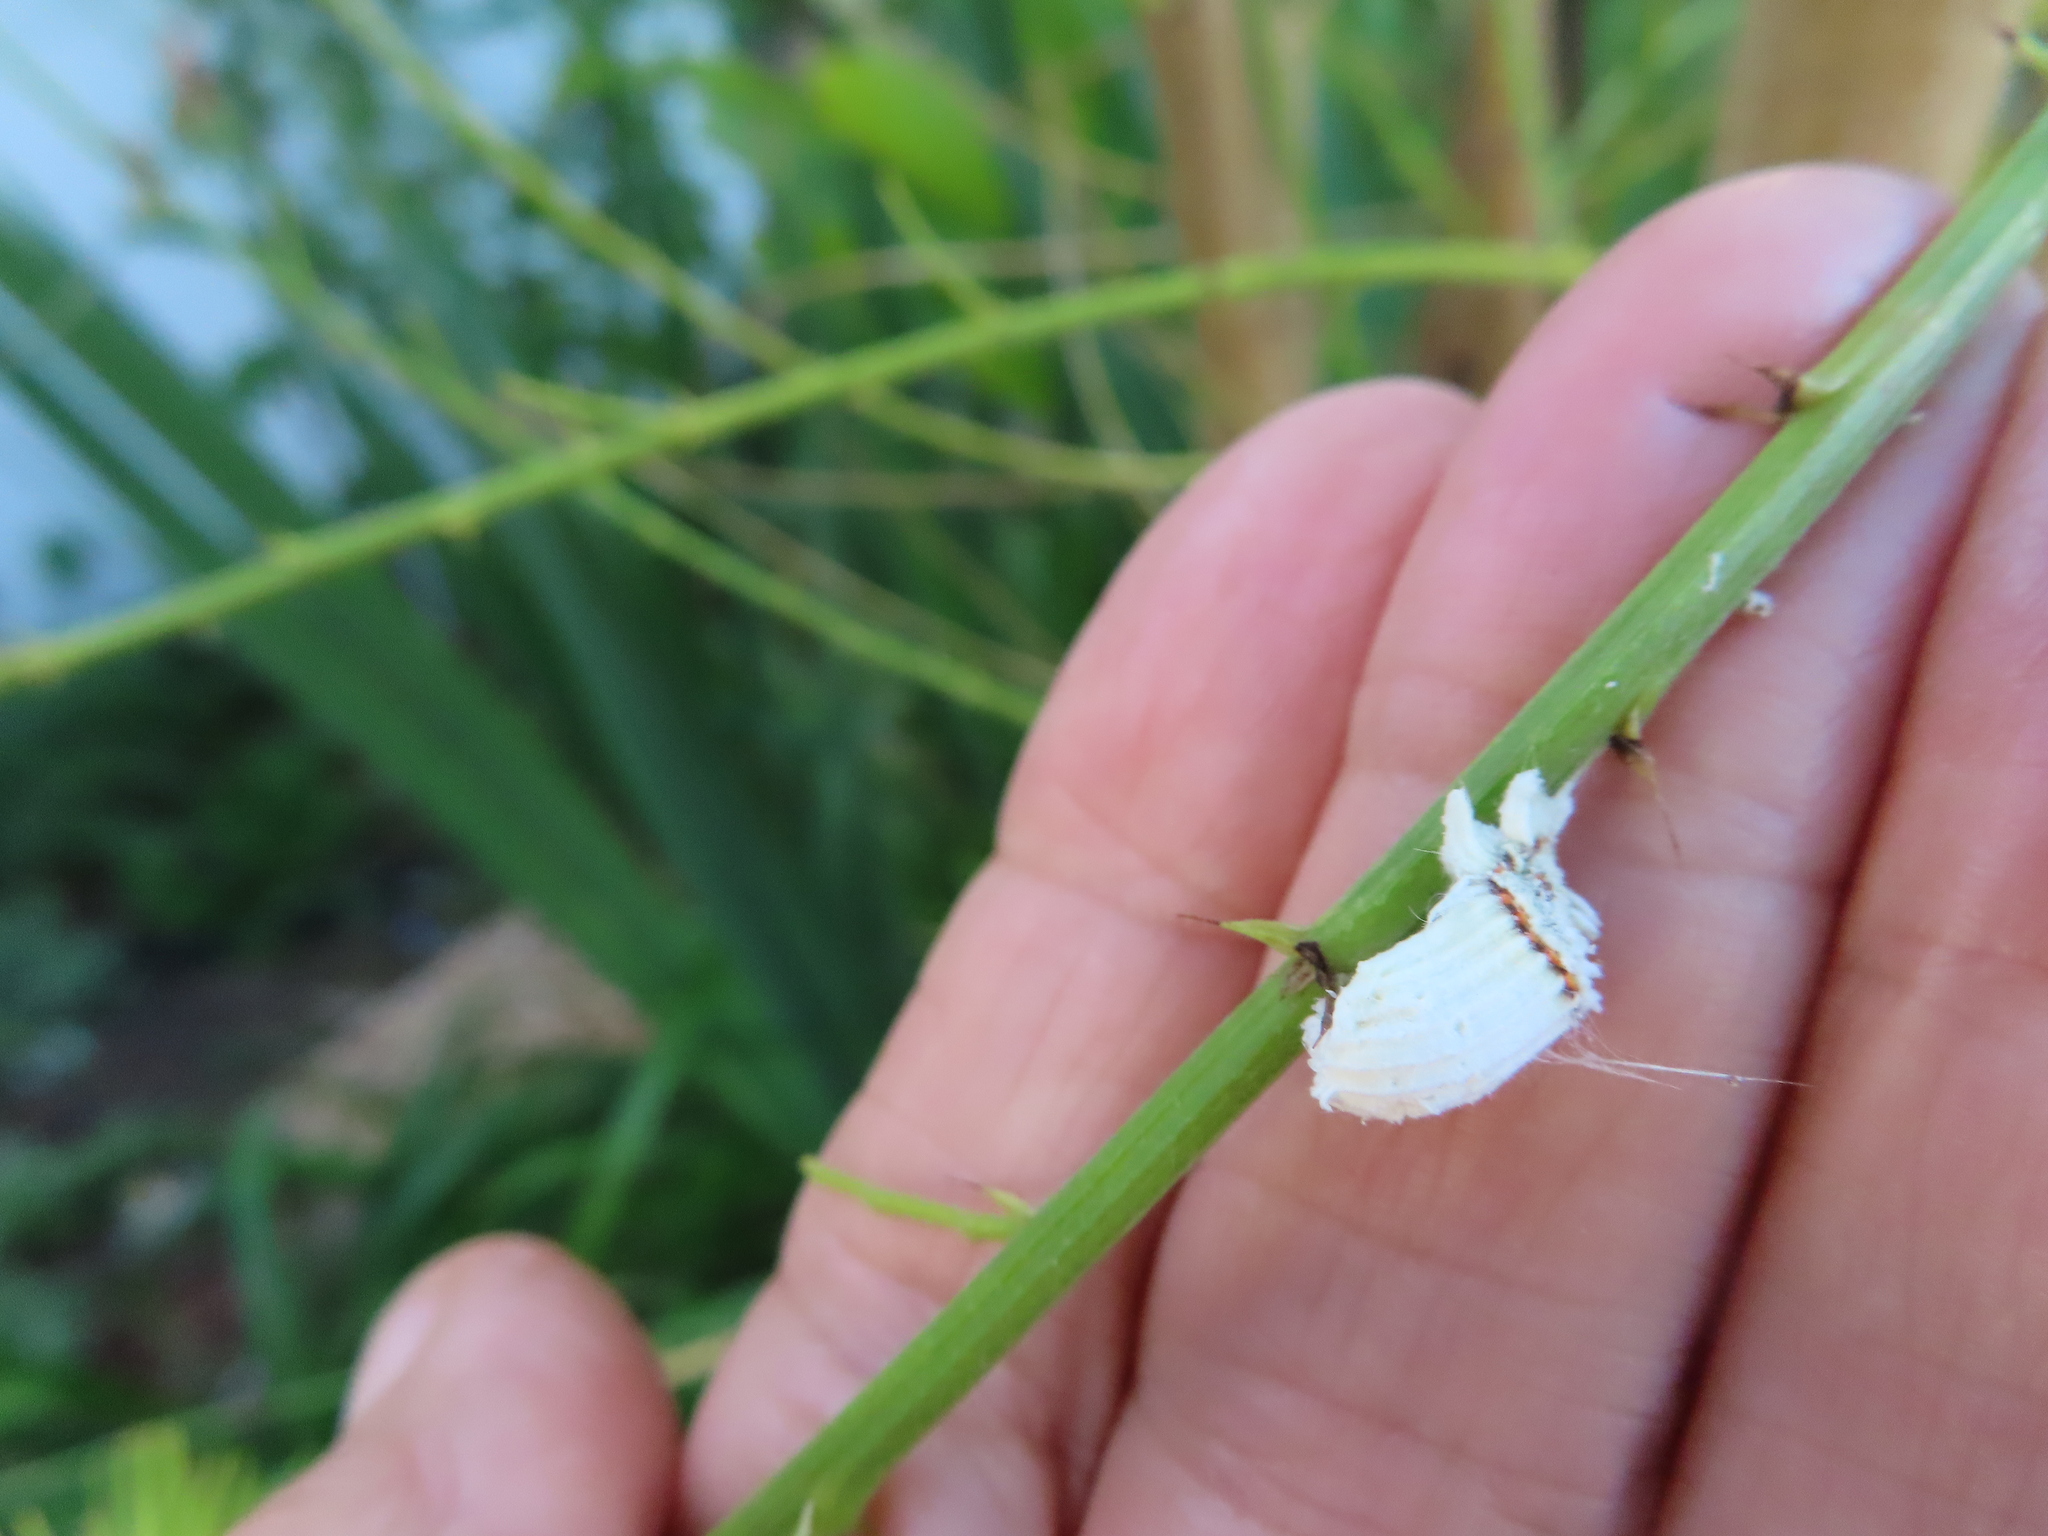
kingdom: Animalia
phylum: Arthropoda
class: Insecta
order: Hemiptera
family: Margarodidae
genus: Icerya
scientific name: Icerya purchasi
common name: Cottony cushion scale
